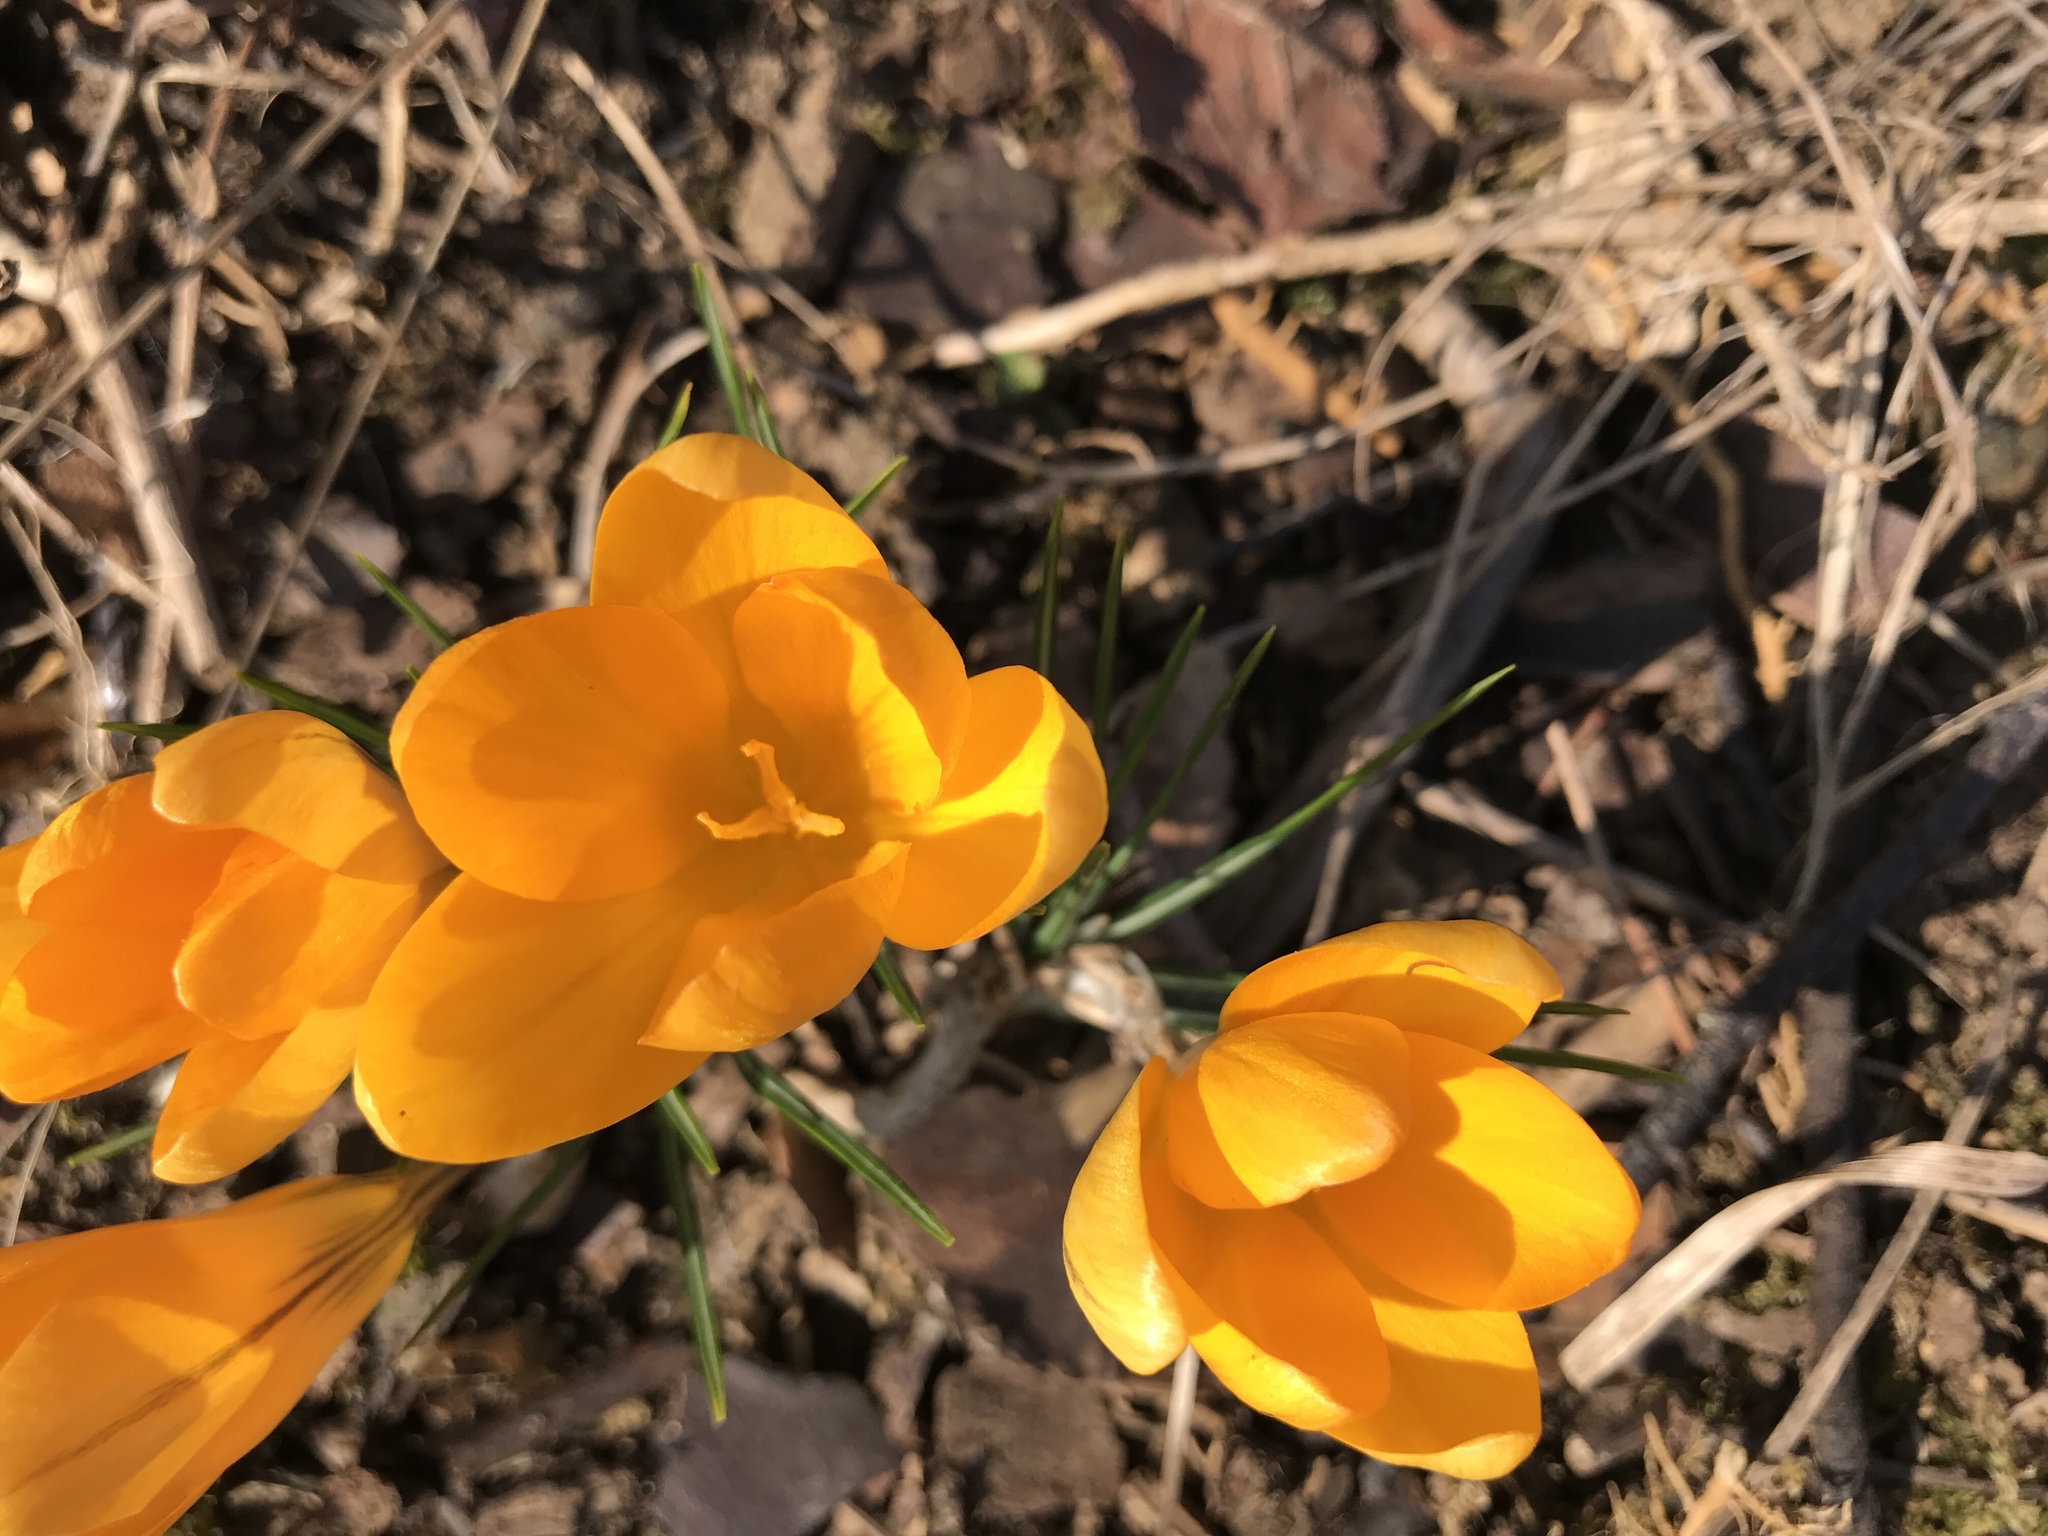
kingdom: Plantae
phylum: Tracheophyta
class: Liliopsida
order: Asparagales
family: Iridaceae
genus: Crocus
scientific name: Crocus luteus
